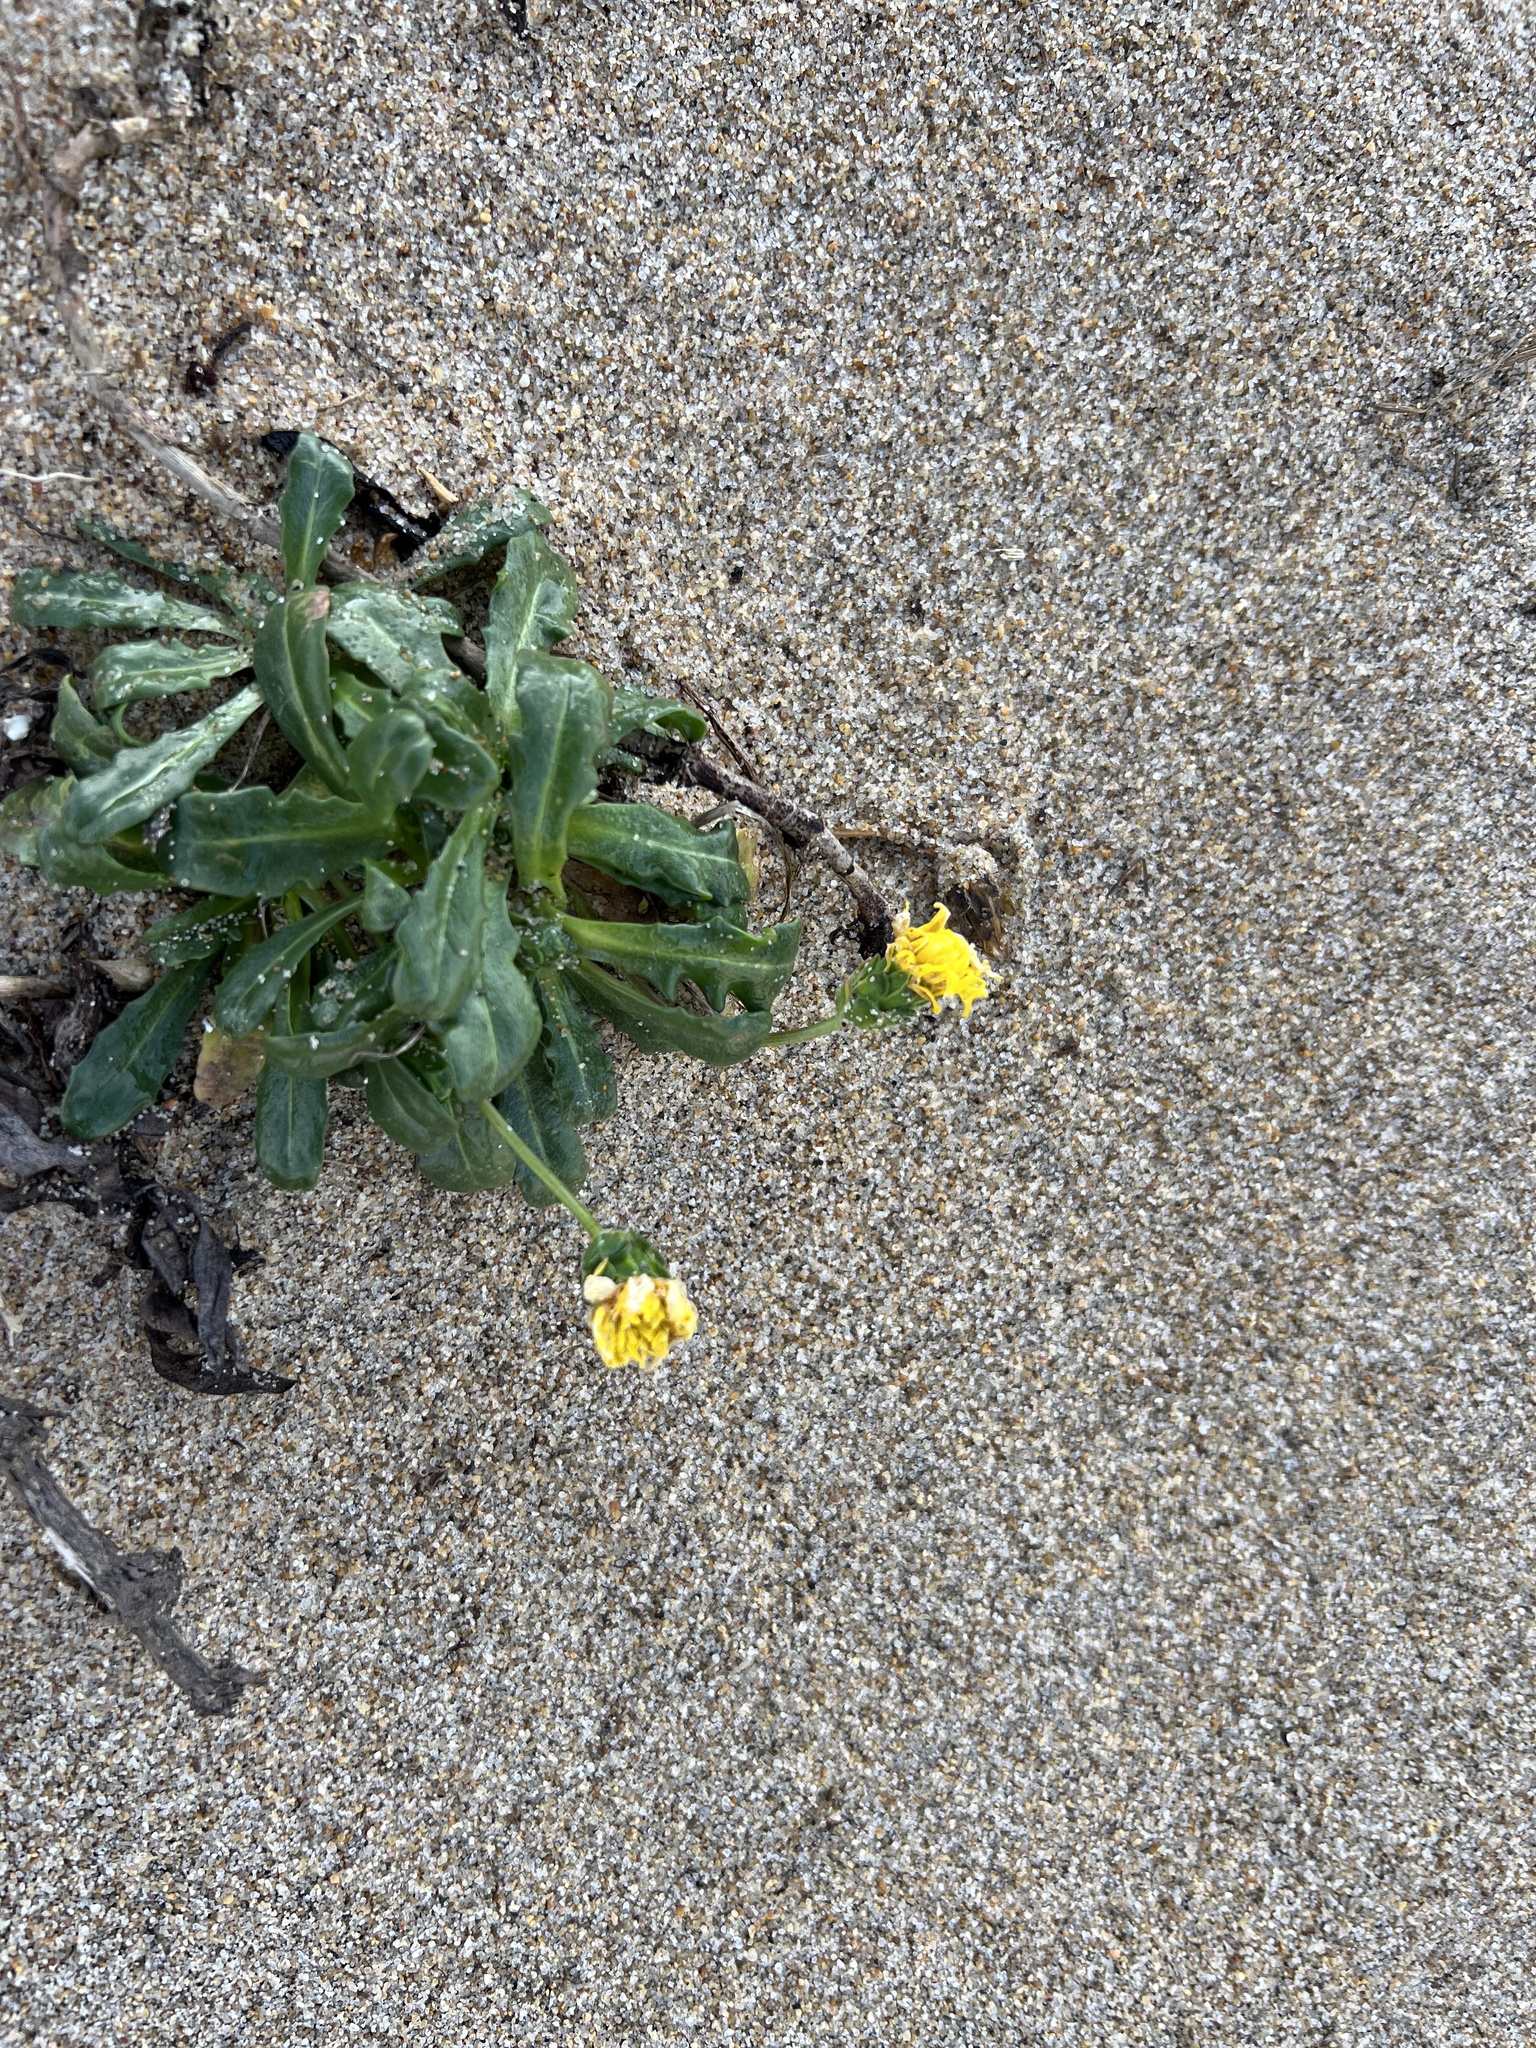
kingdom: Plantae
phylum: Tracheophyta
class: Magnoliopsida
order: Asterales
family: Asteraceae
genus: Agoseris
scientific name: Agoseris apargioides
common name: Point reyes agoseris
